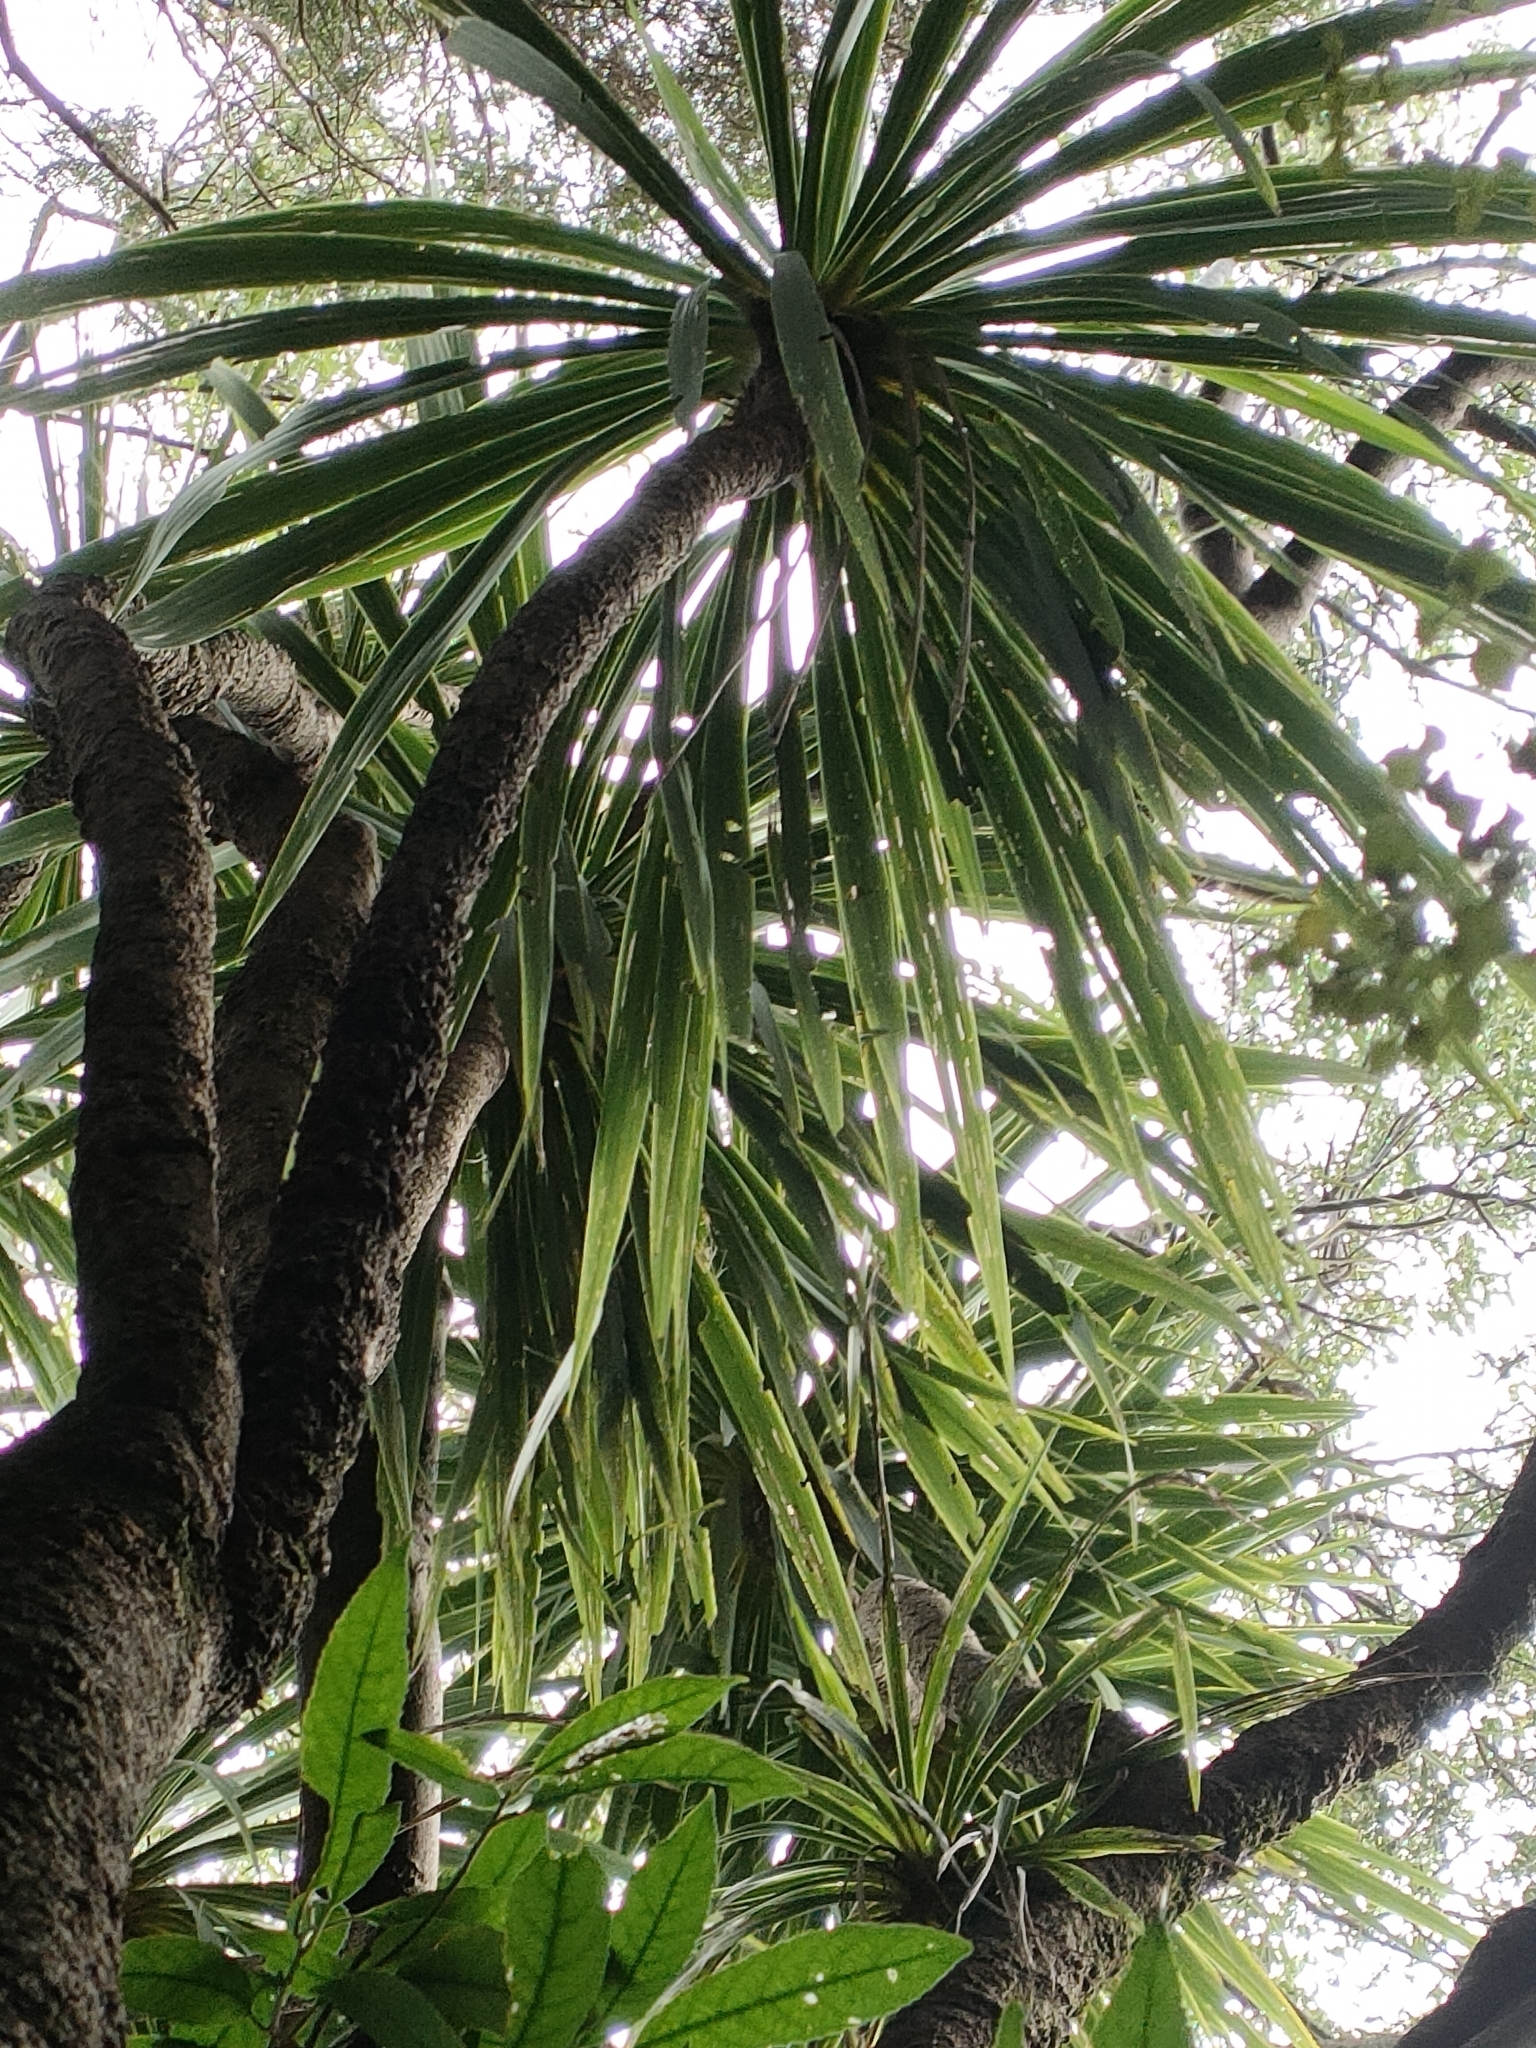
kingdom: Plantae
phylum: Tracheophyta
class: Liliopsida
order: Asparagales
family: Asparagaceae
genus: Cordyline
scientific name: Cordyline australis
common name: Cabbage-palm
